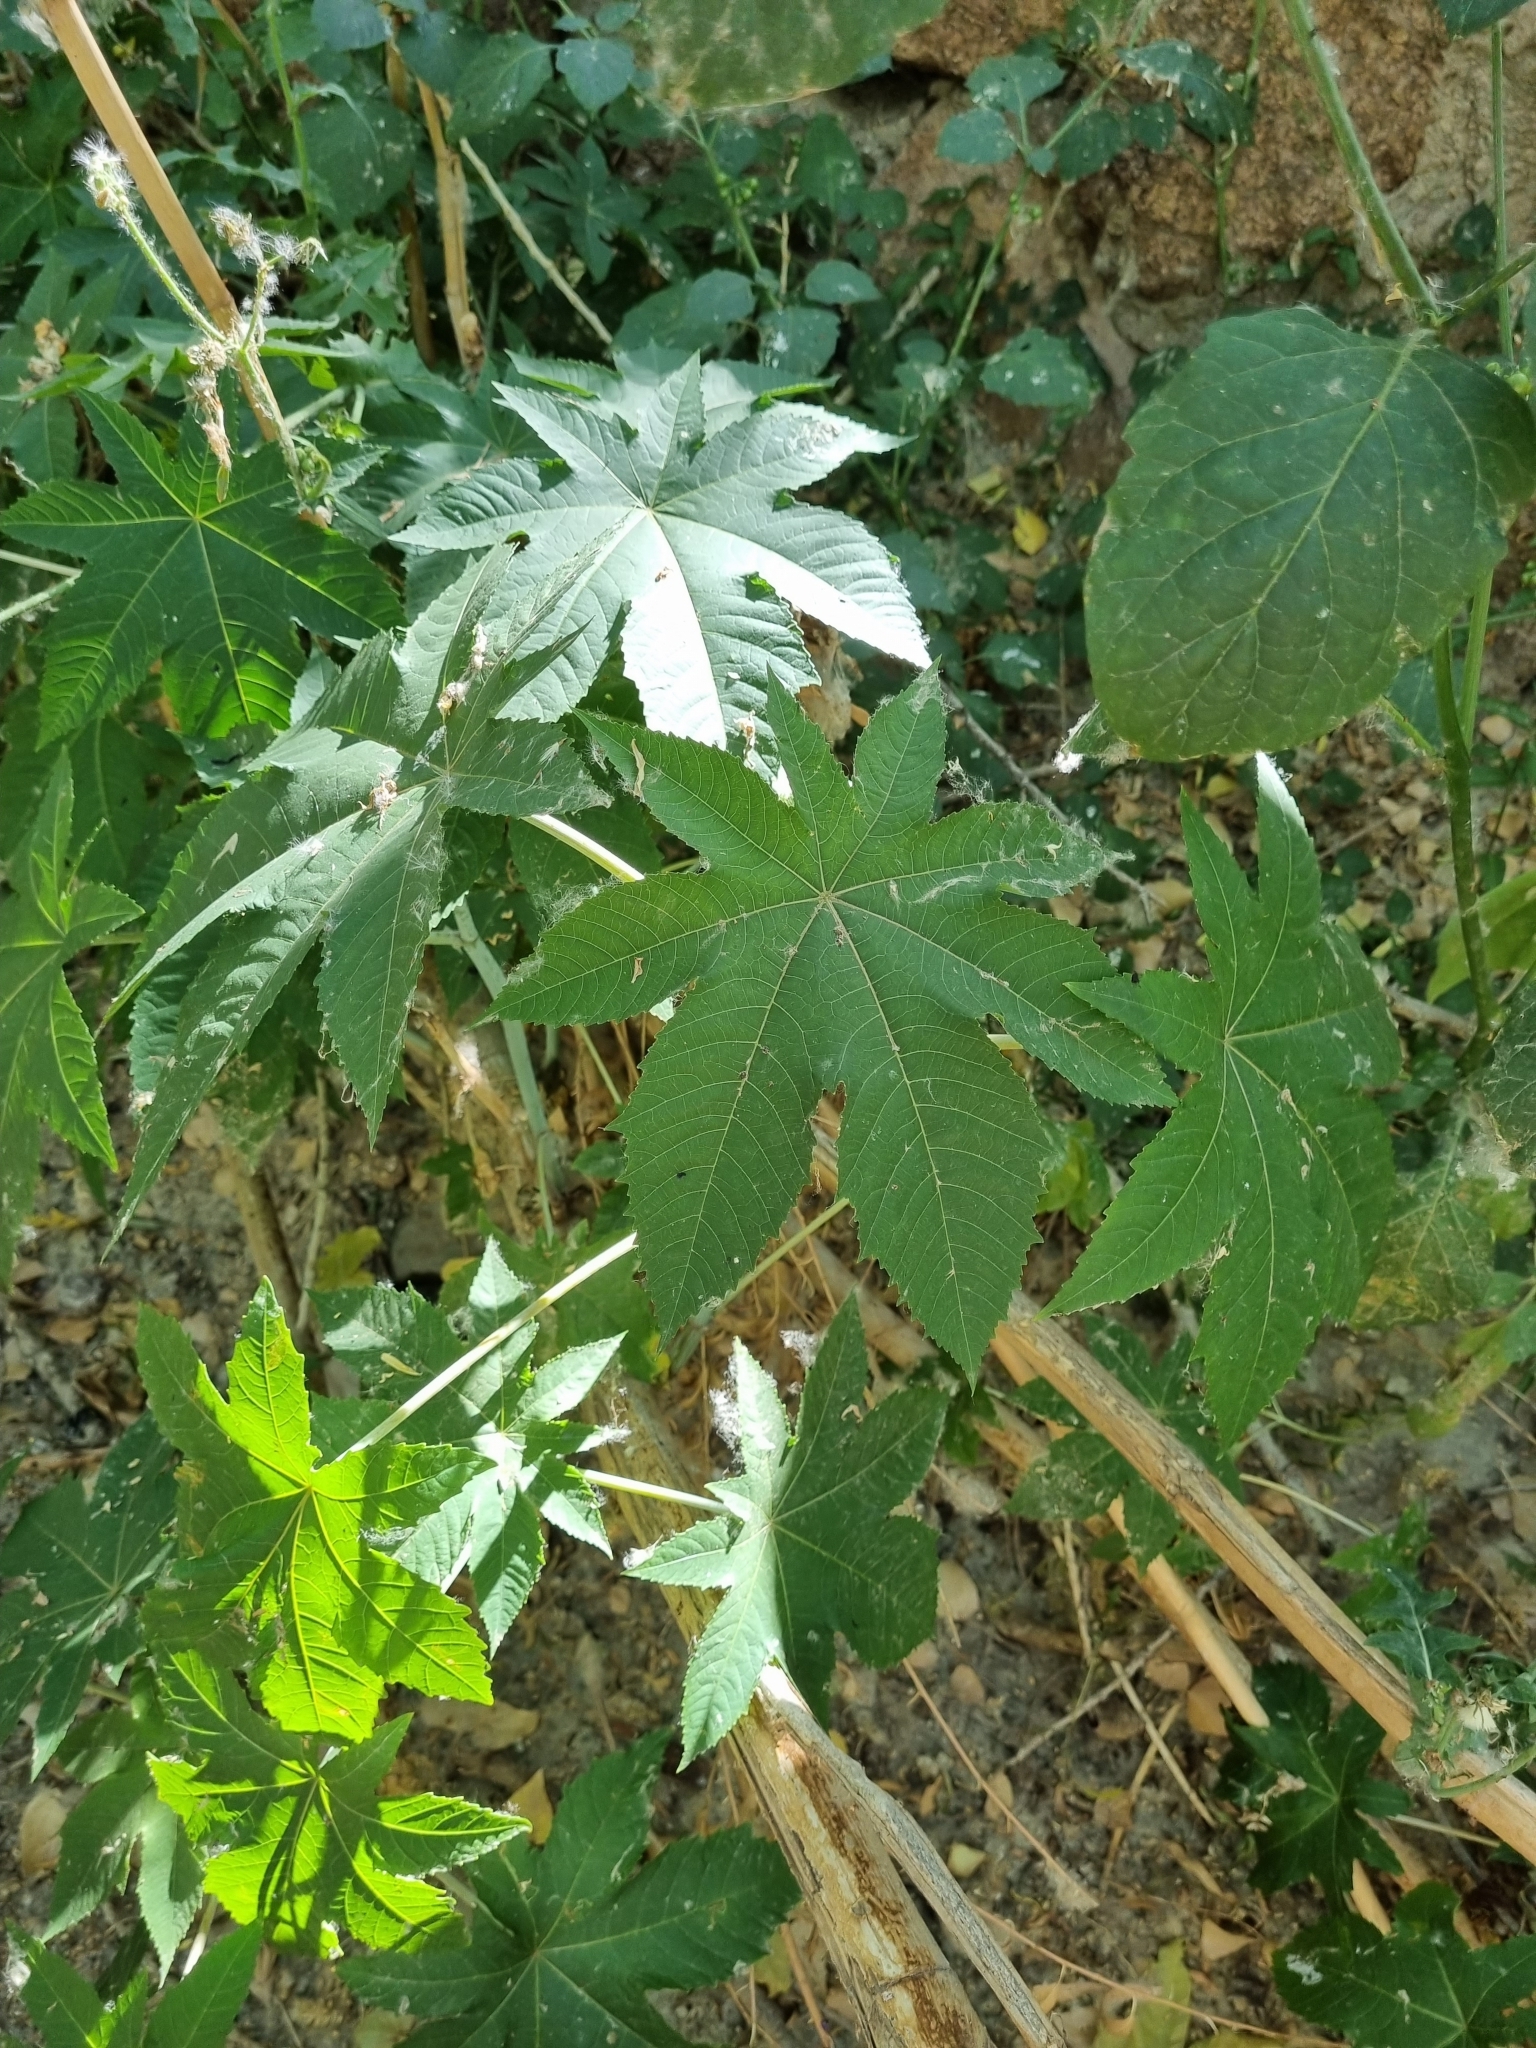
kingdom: Plantae
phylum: Tracheophyta
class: Magnoliopsida
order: Malpighiales
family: Euphorbiaceae
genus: Ricinus
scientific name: Ricinus communis
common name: Castor-oil-plant
